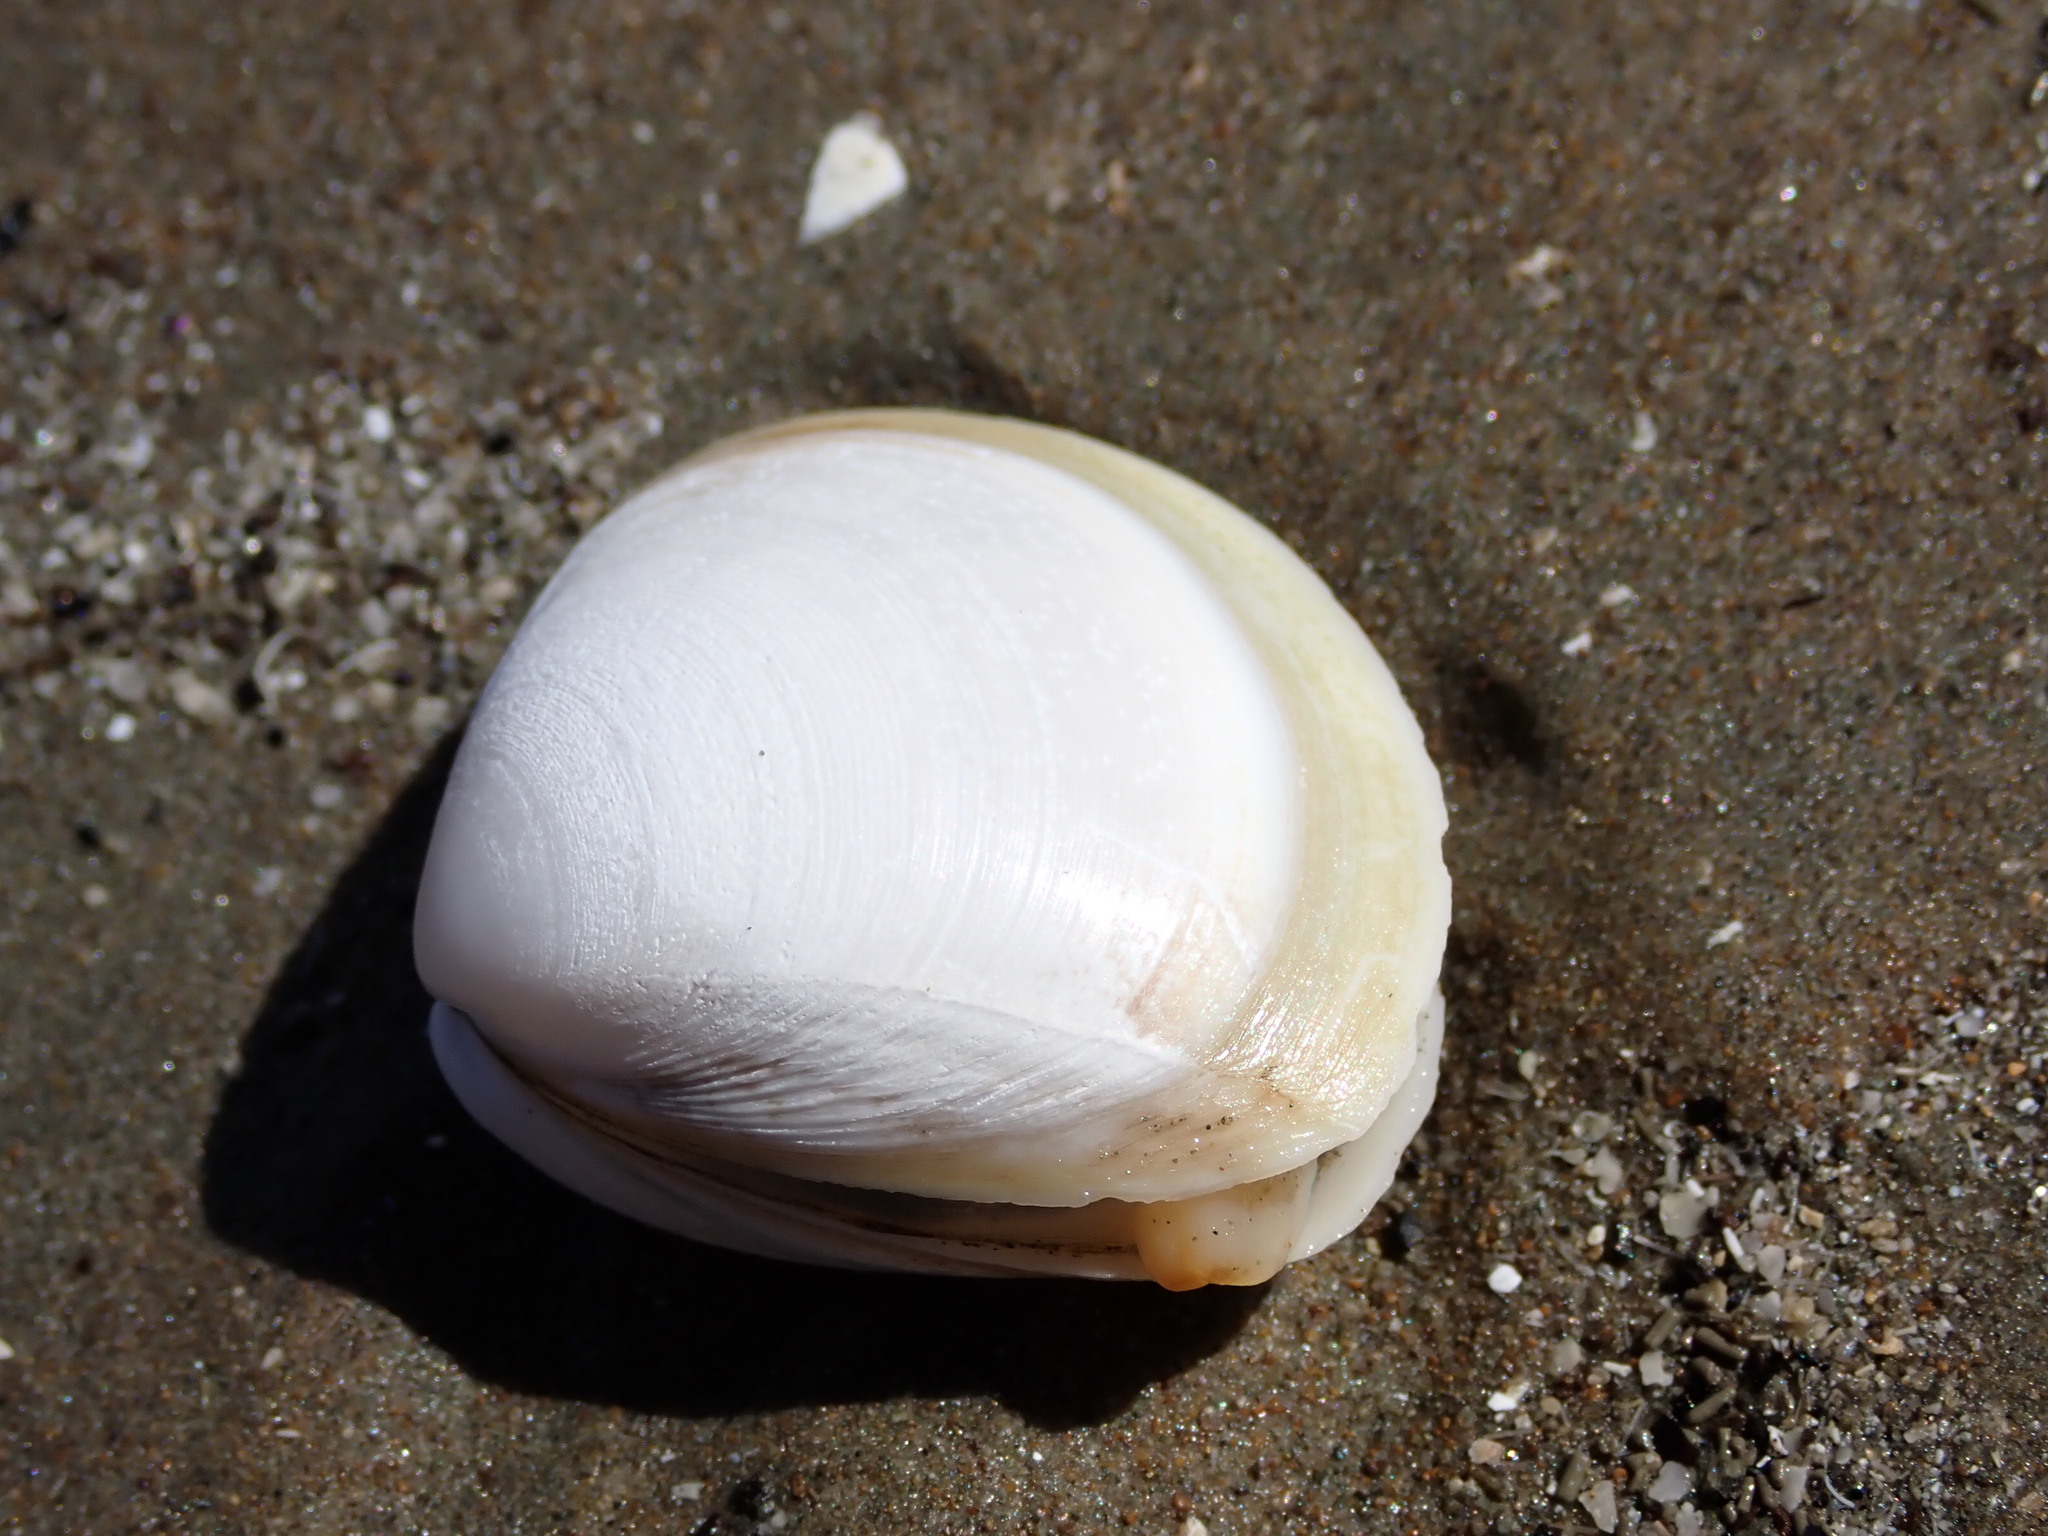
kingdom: Animalia
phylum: Mollusca
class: Bivalvia
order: Venerida
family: Mactridae
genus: Spisula
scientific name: Spisula discors
